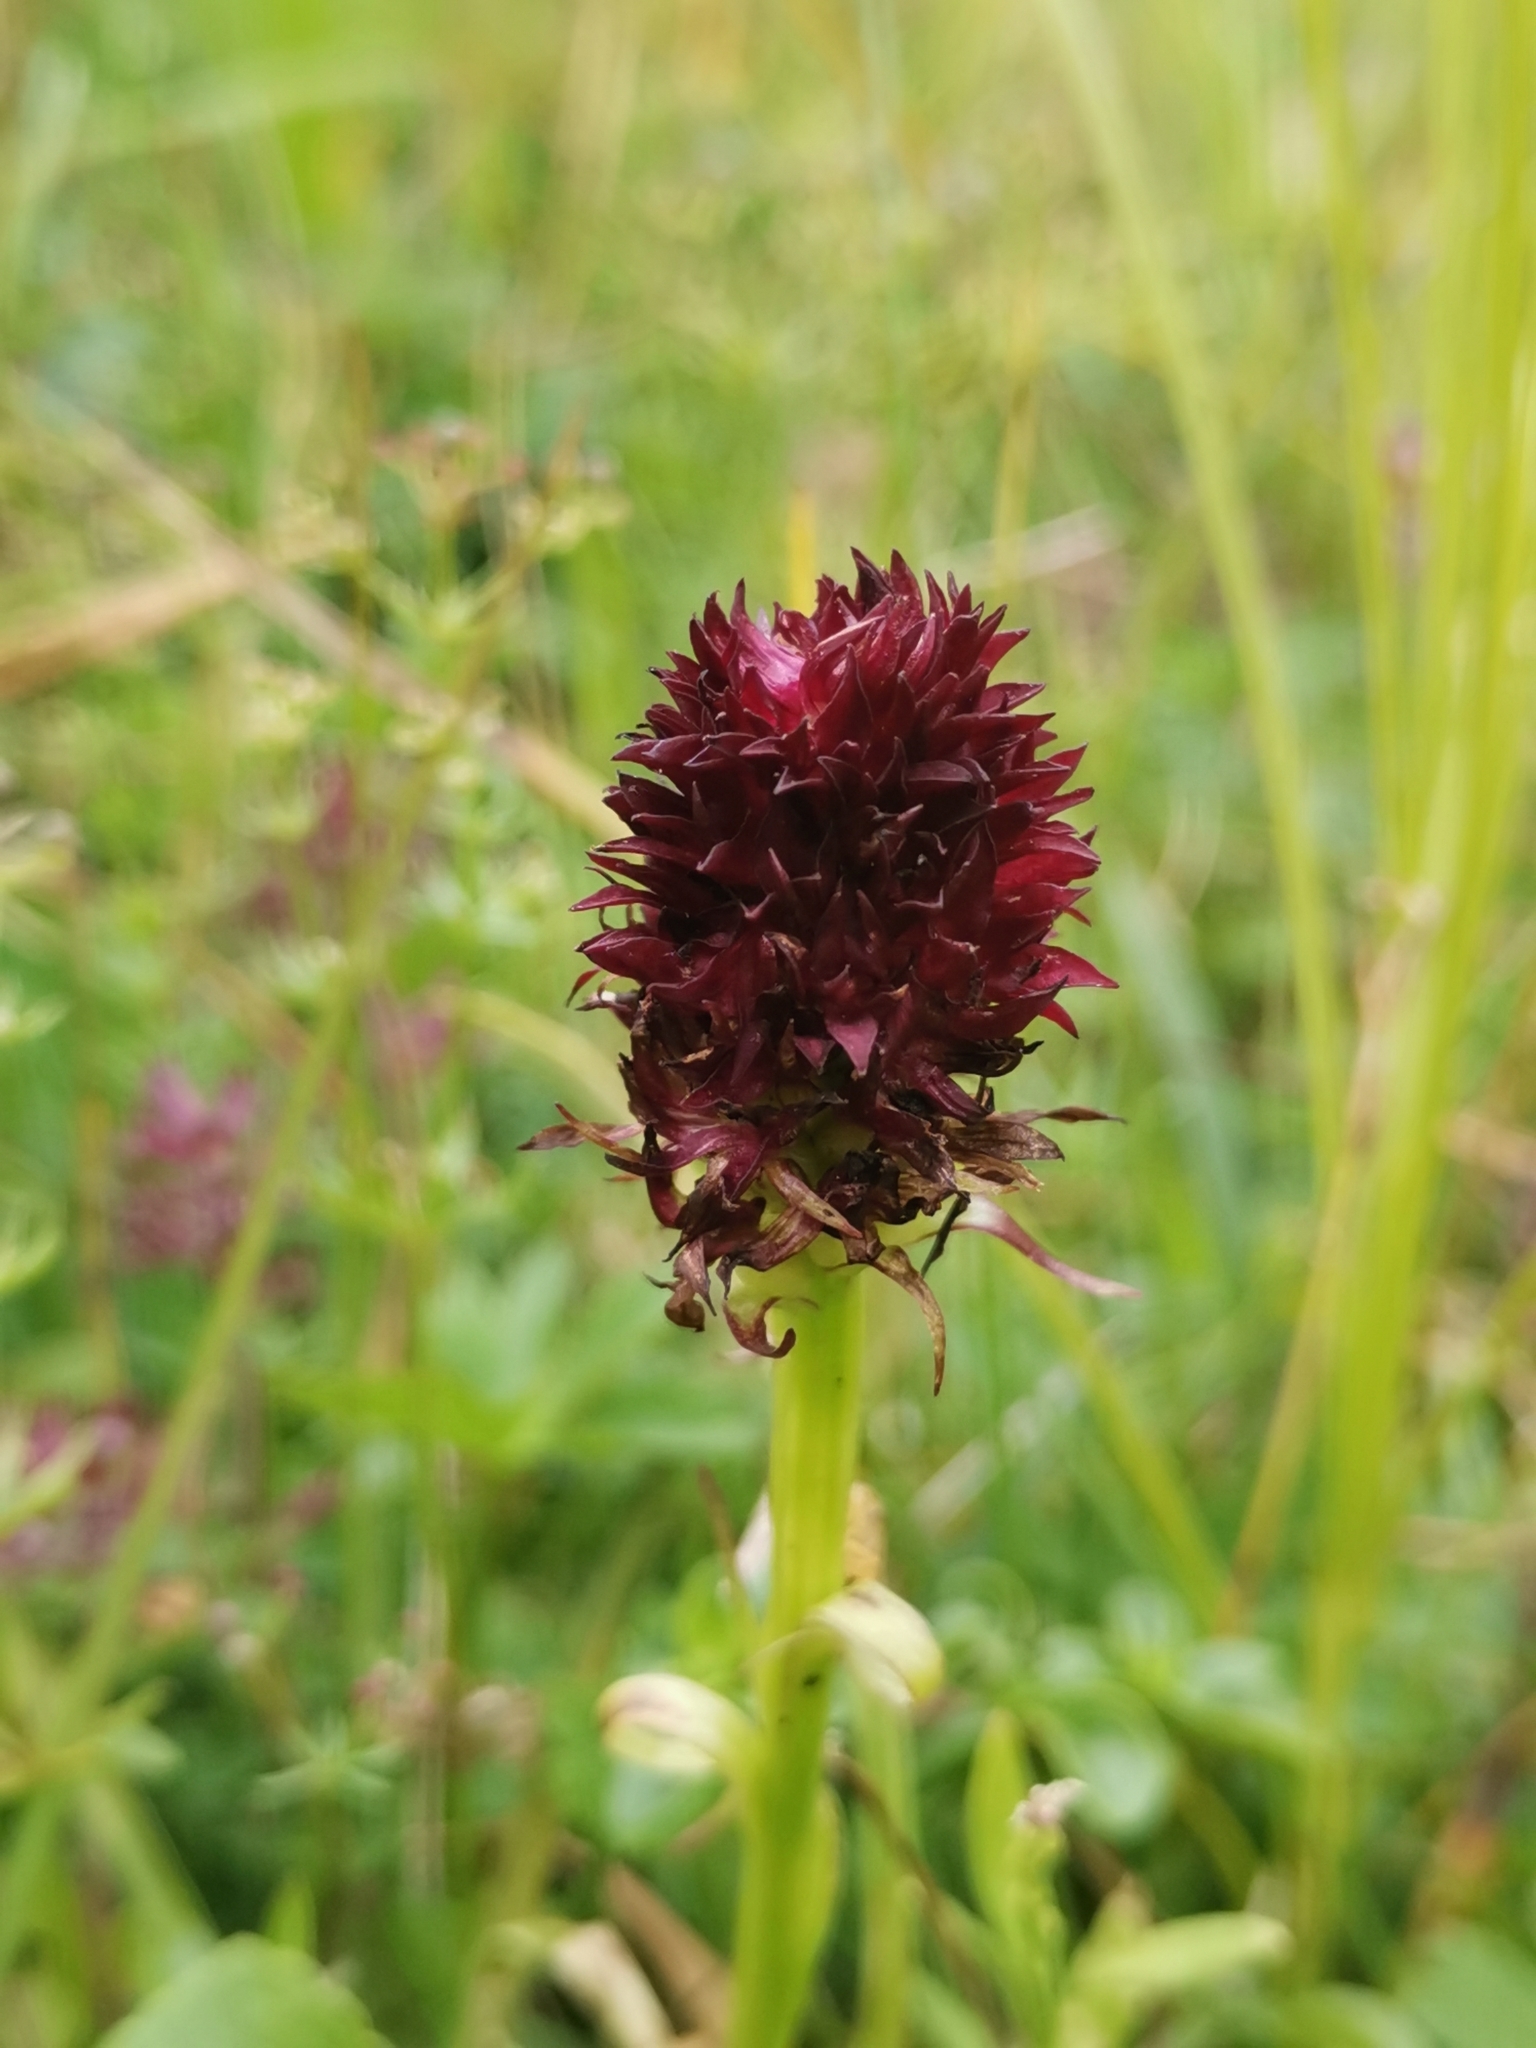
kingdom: Plantae
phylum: Tracheophyta
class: Liliopsida
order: Asparagales
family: Orchidaceae
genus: Gymnadenia
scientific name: Gymnadenia rhellicani
